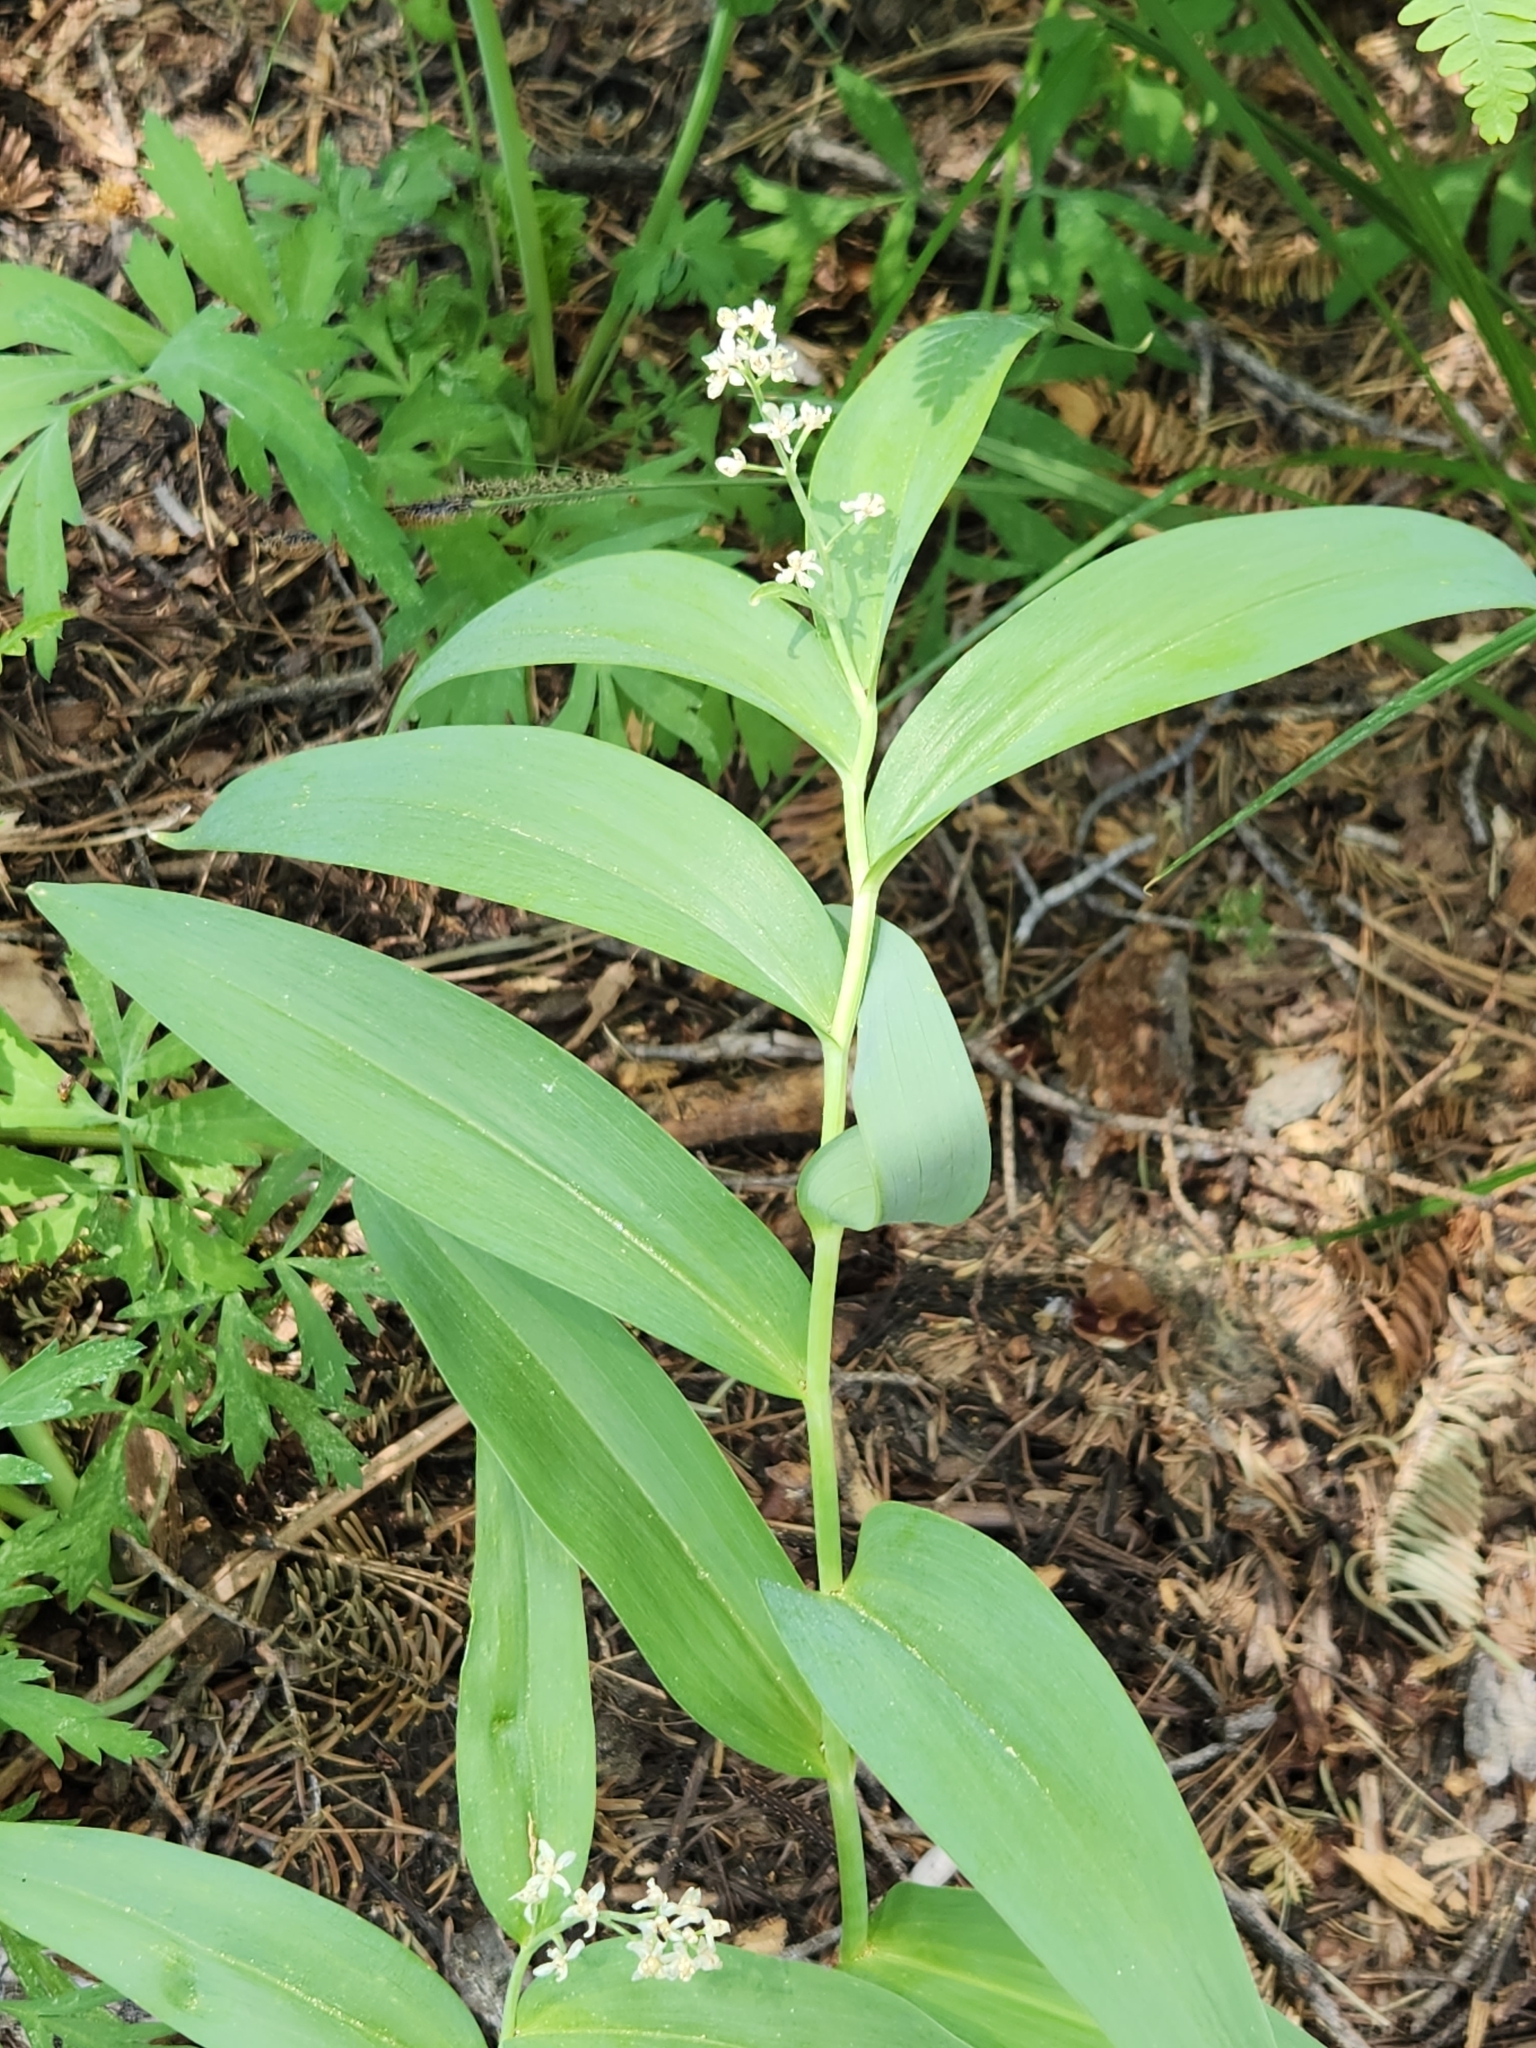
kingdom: Plantae
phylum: Tracheophyta
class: Liliopsida
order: Asparagales
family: Asparagaceae
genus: Maianthemum
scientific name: Maianthemum stellatum
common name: Little false solomon's seal
